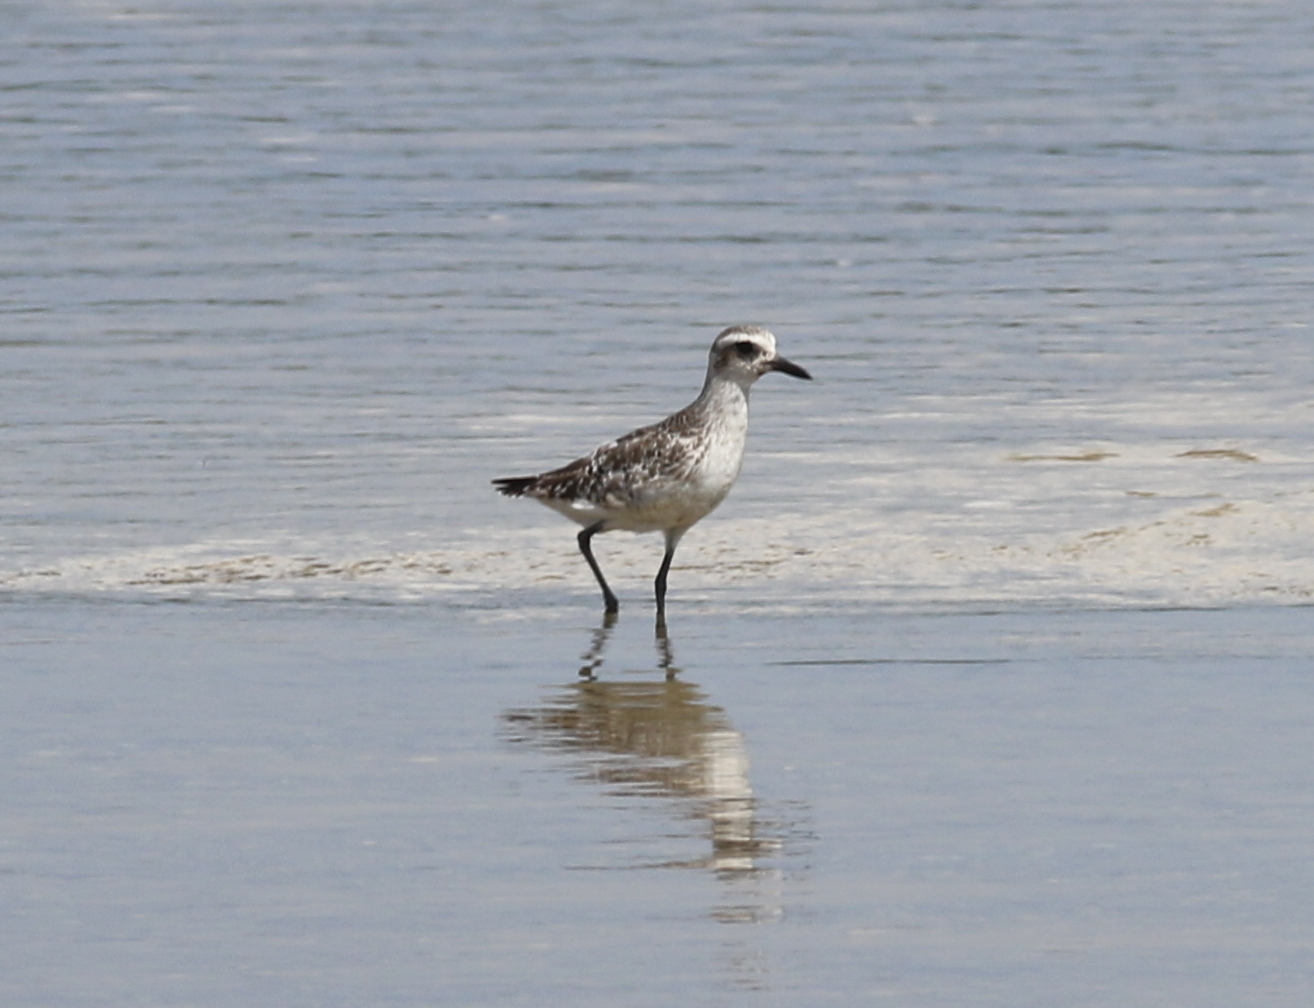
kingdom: Animalia
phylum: Chordata
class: Aves
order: Charadriiformes
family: Charadriidae
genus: Pluvialis
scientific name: Pluvialis squatarola
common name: Grey plover
